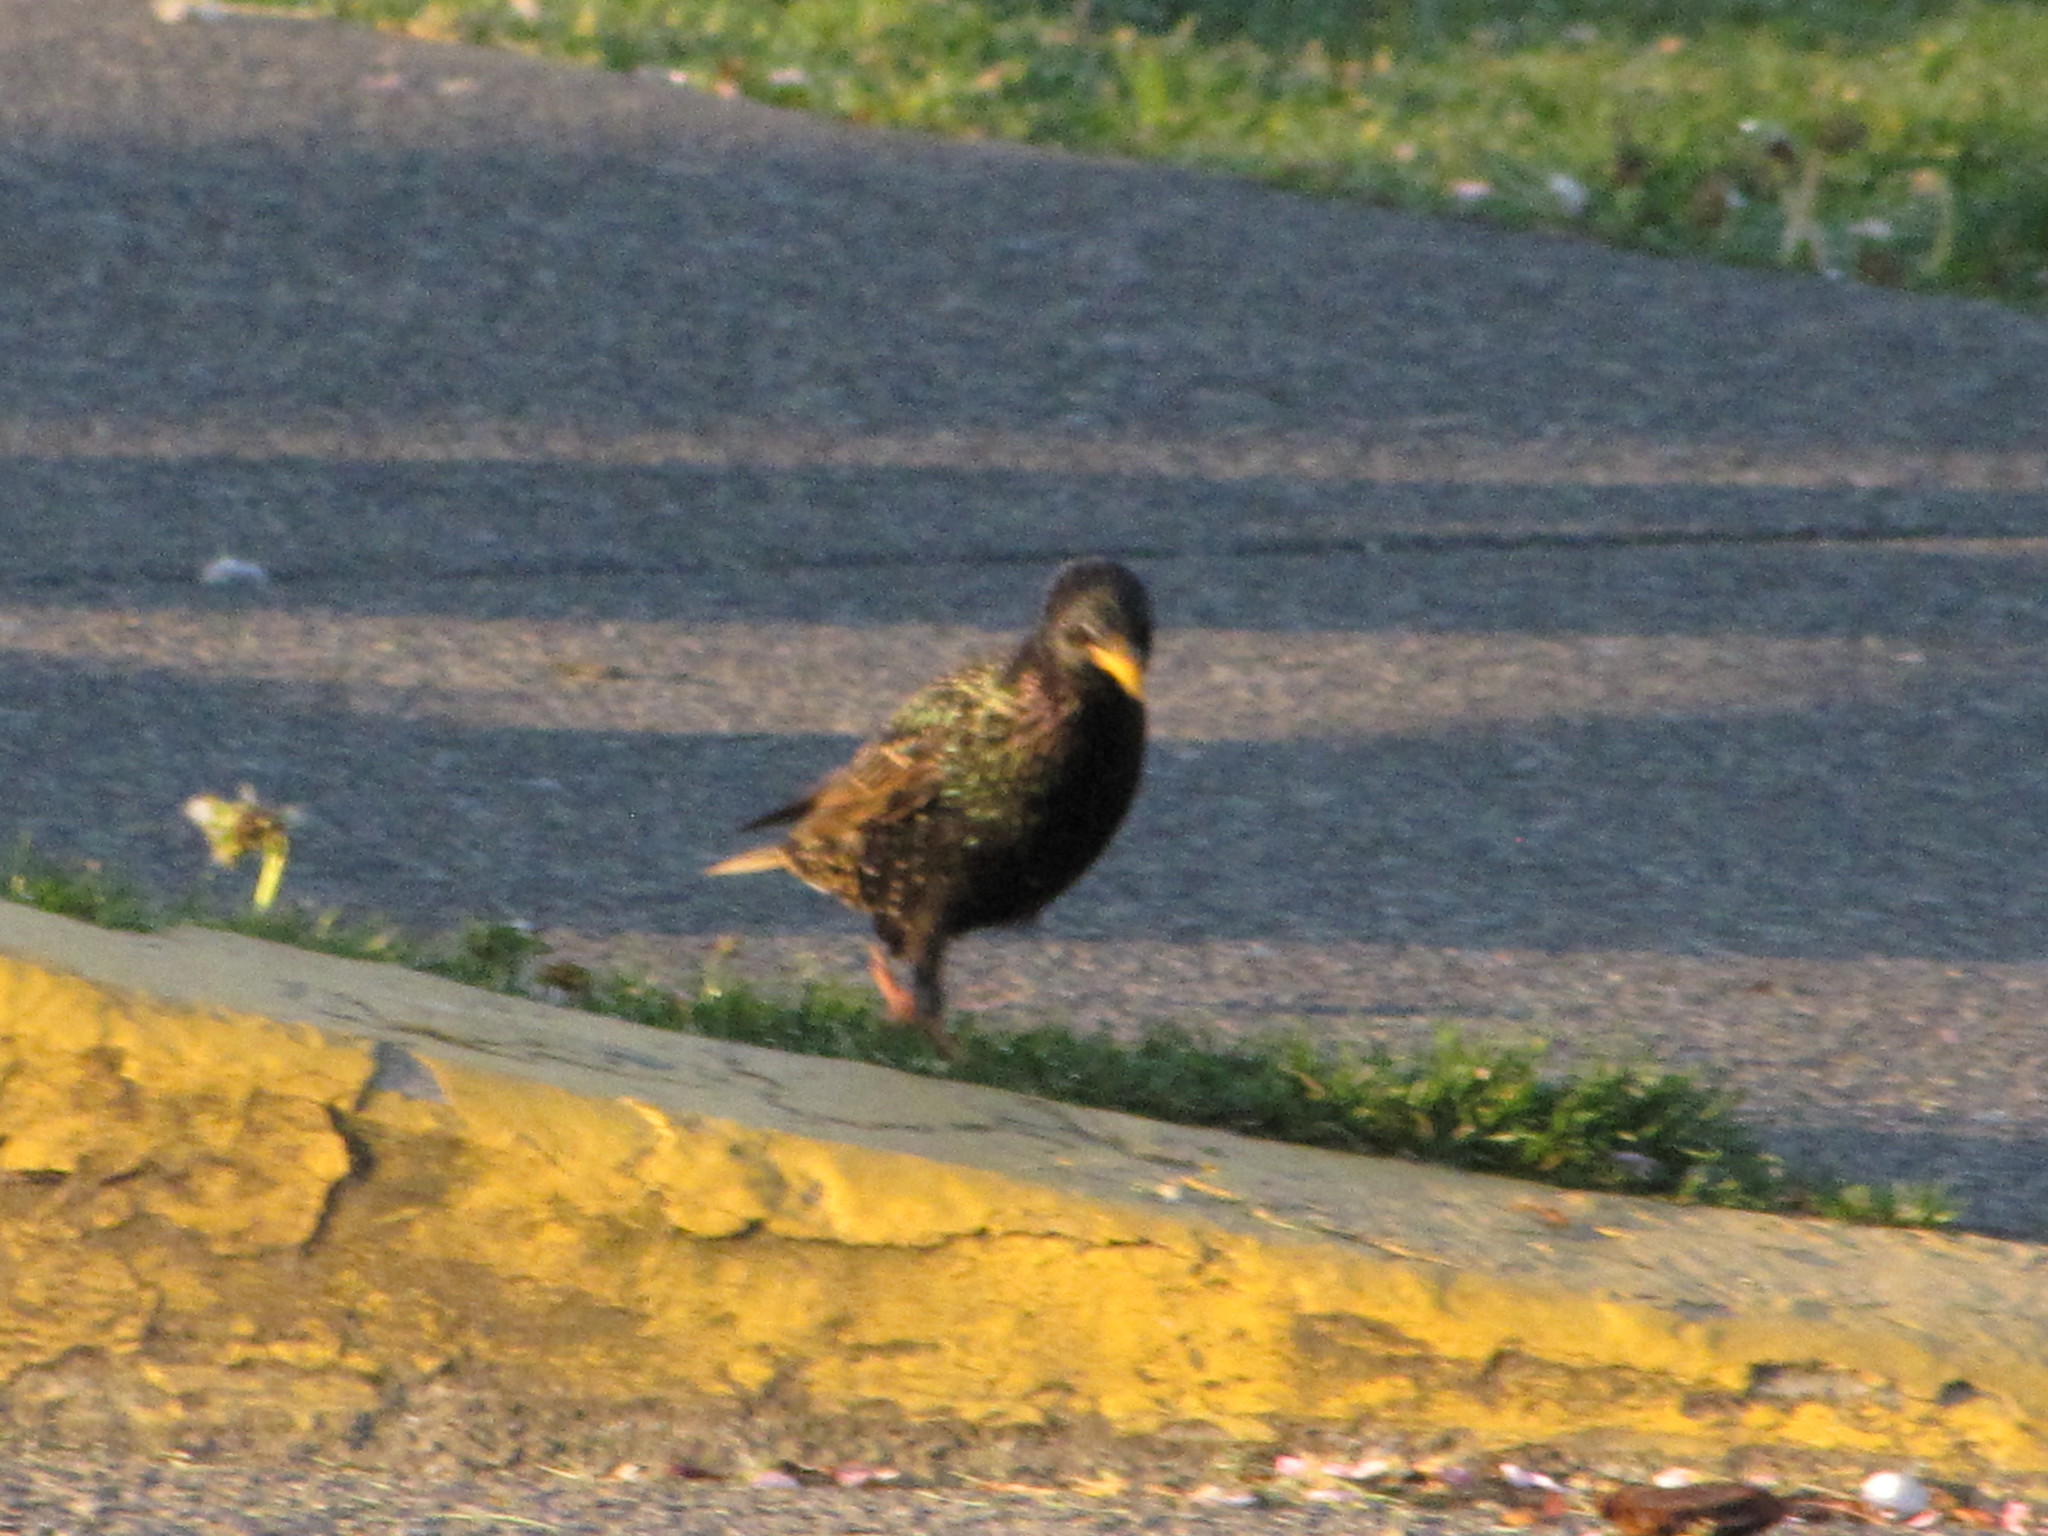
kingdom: Animalia
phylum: Chordata
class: Aves
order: Passeriformes
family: Sturnidae
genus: Sturnus
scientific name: Sturnus vulgaris
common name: Common starling
